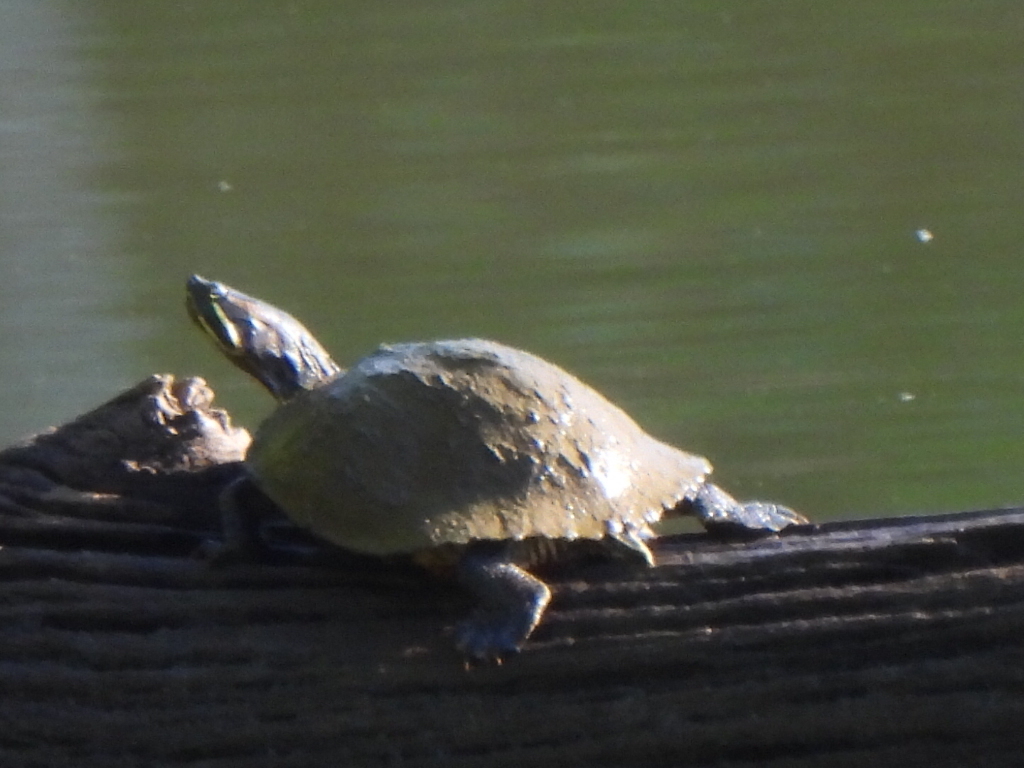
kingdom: Animalia
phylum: Chordata
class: Testudines
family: Emydidae
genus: Trachemys
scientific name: Trachemys scripta
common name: Slider
